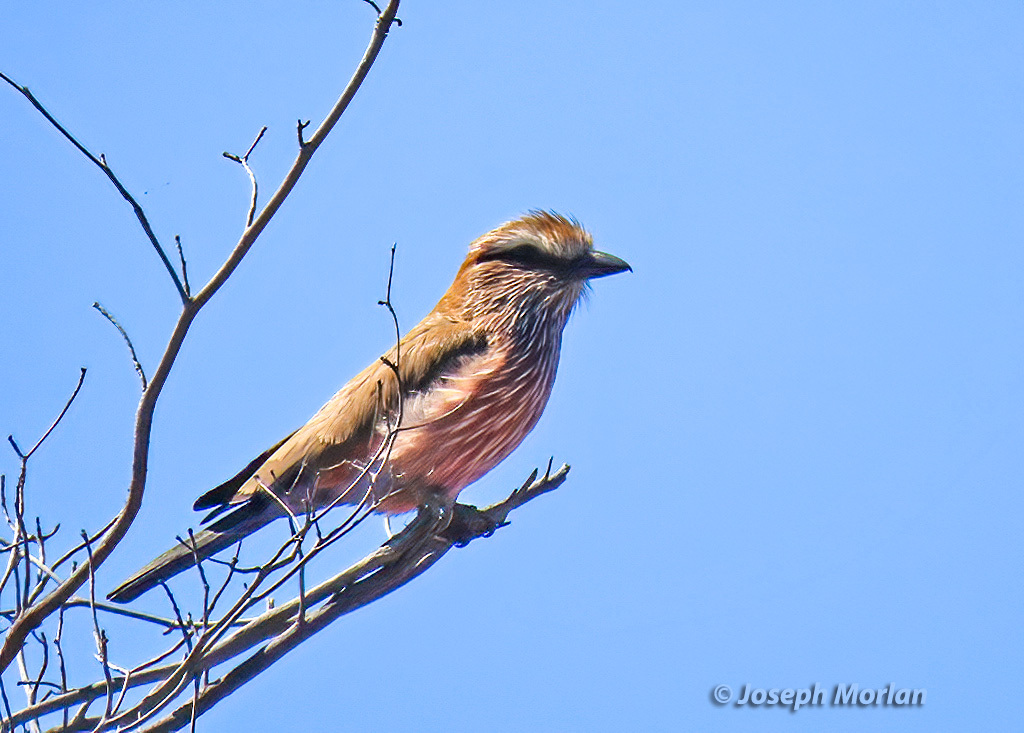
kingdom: Animalia
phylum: Chordata
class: Aves
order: Coraciiformes
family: Coraciidae
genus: Coracias
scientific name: Coracias naevius
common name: Purple roller
